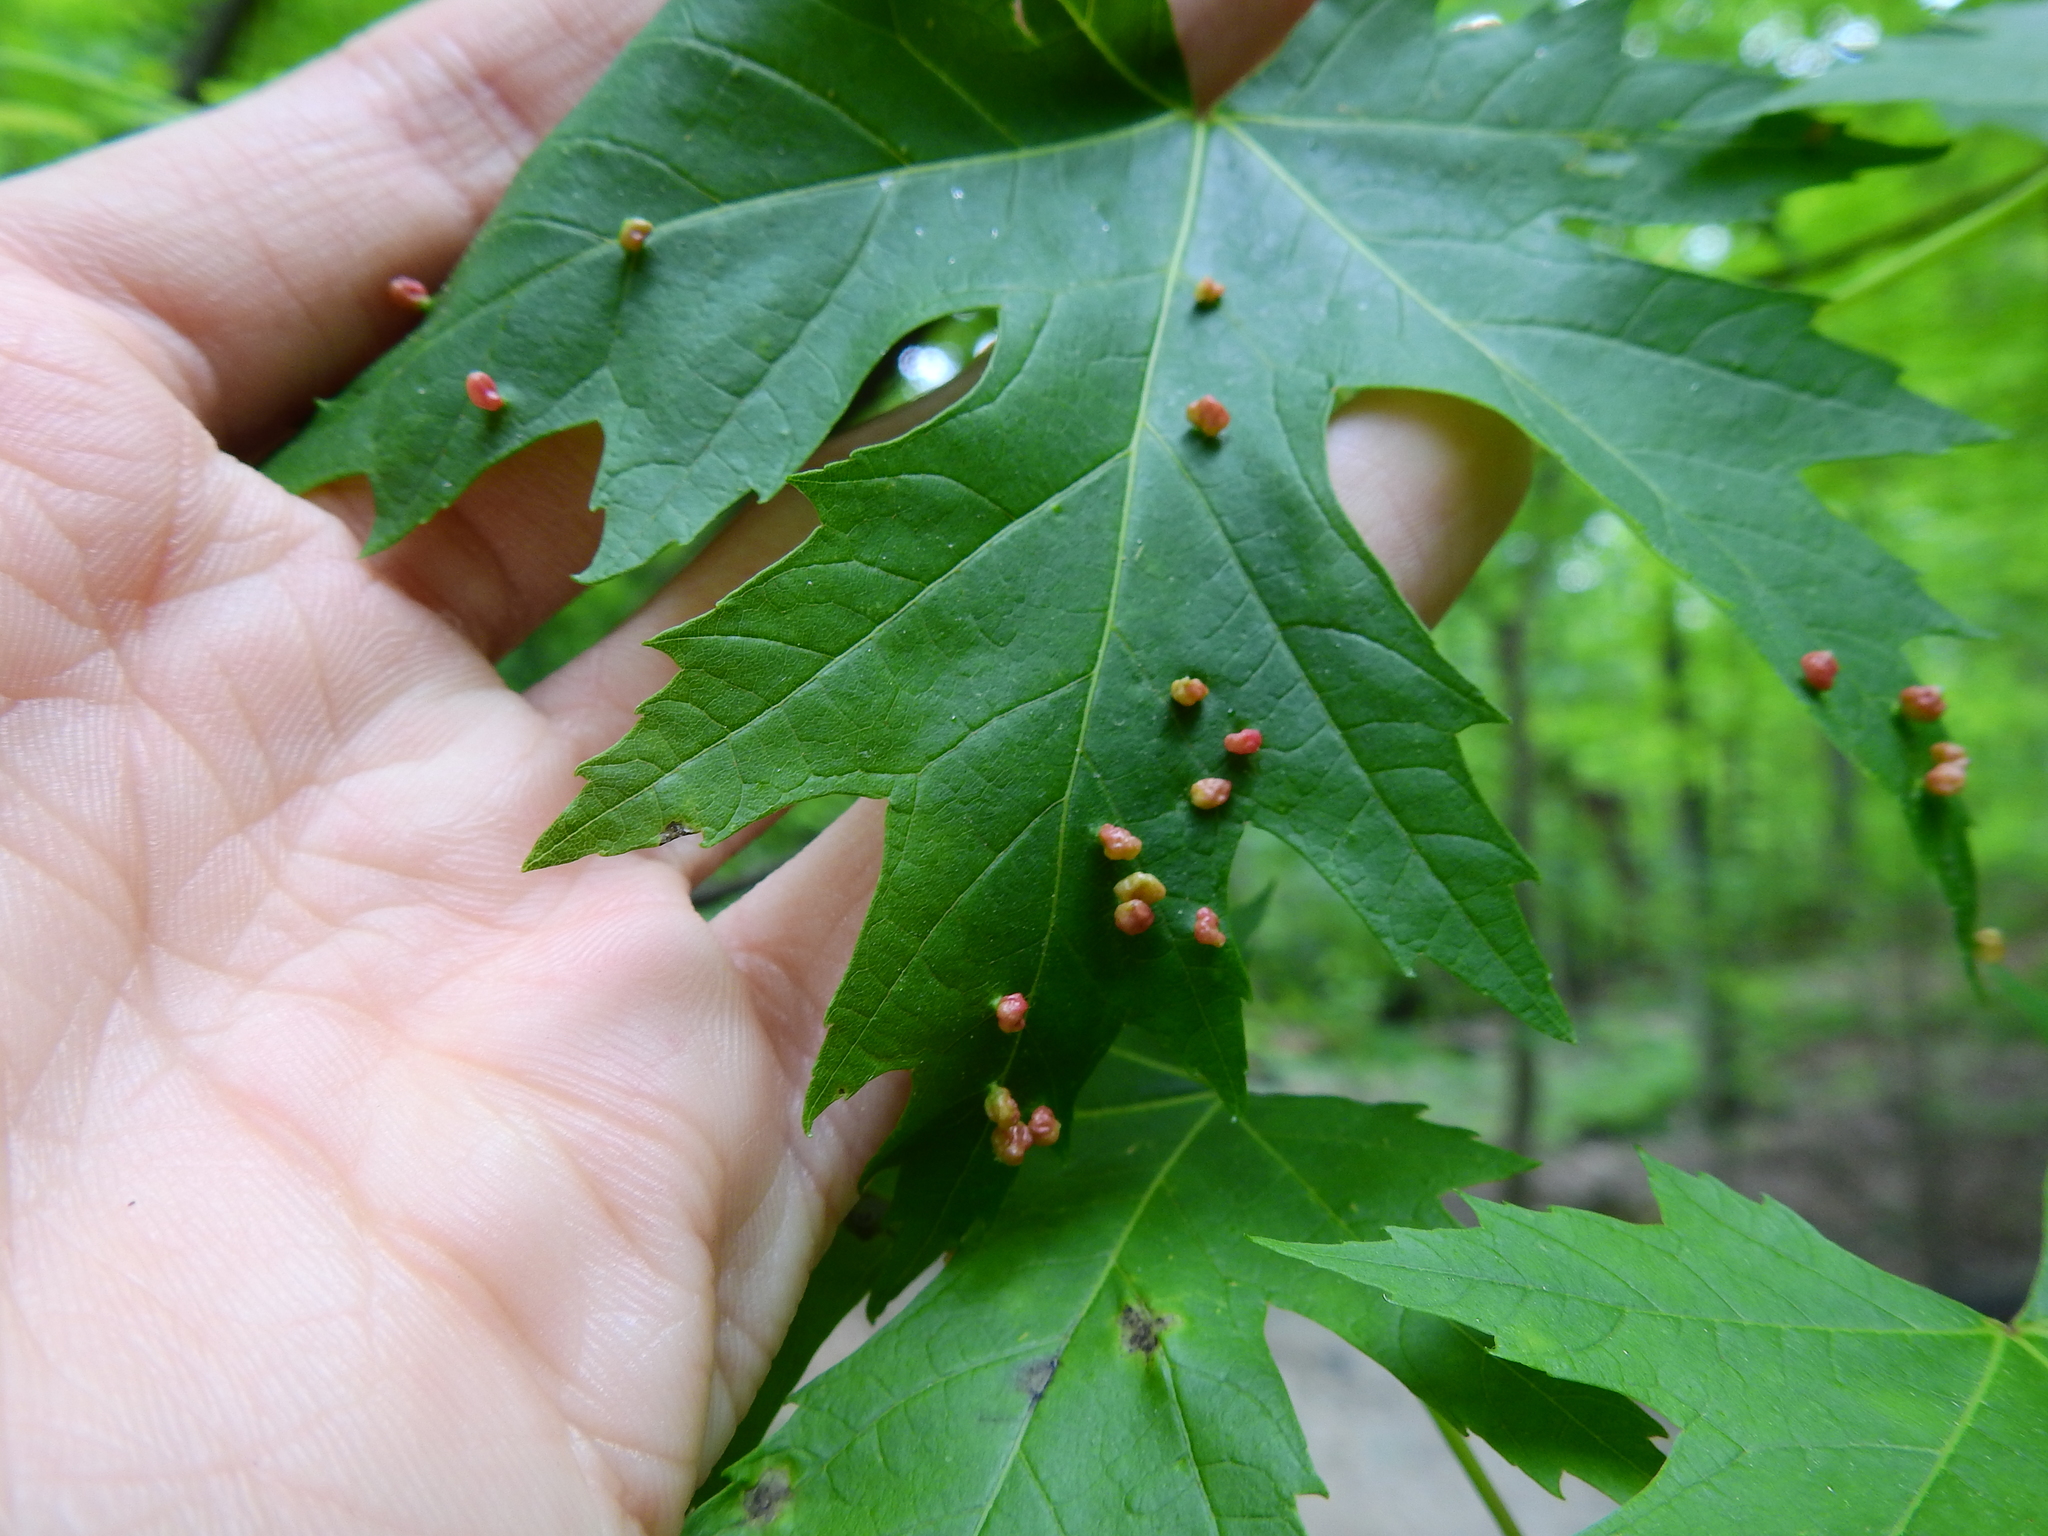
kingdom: Animalia
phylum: Arthropoda
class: Arachnida
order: Trombidiformes
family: Eriophyidae
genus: Vasates
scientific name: Vasates quadripedes
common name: Maple bladder gall mite
